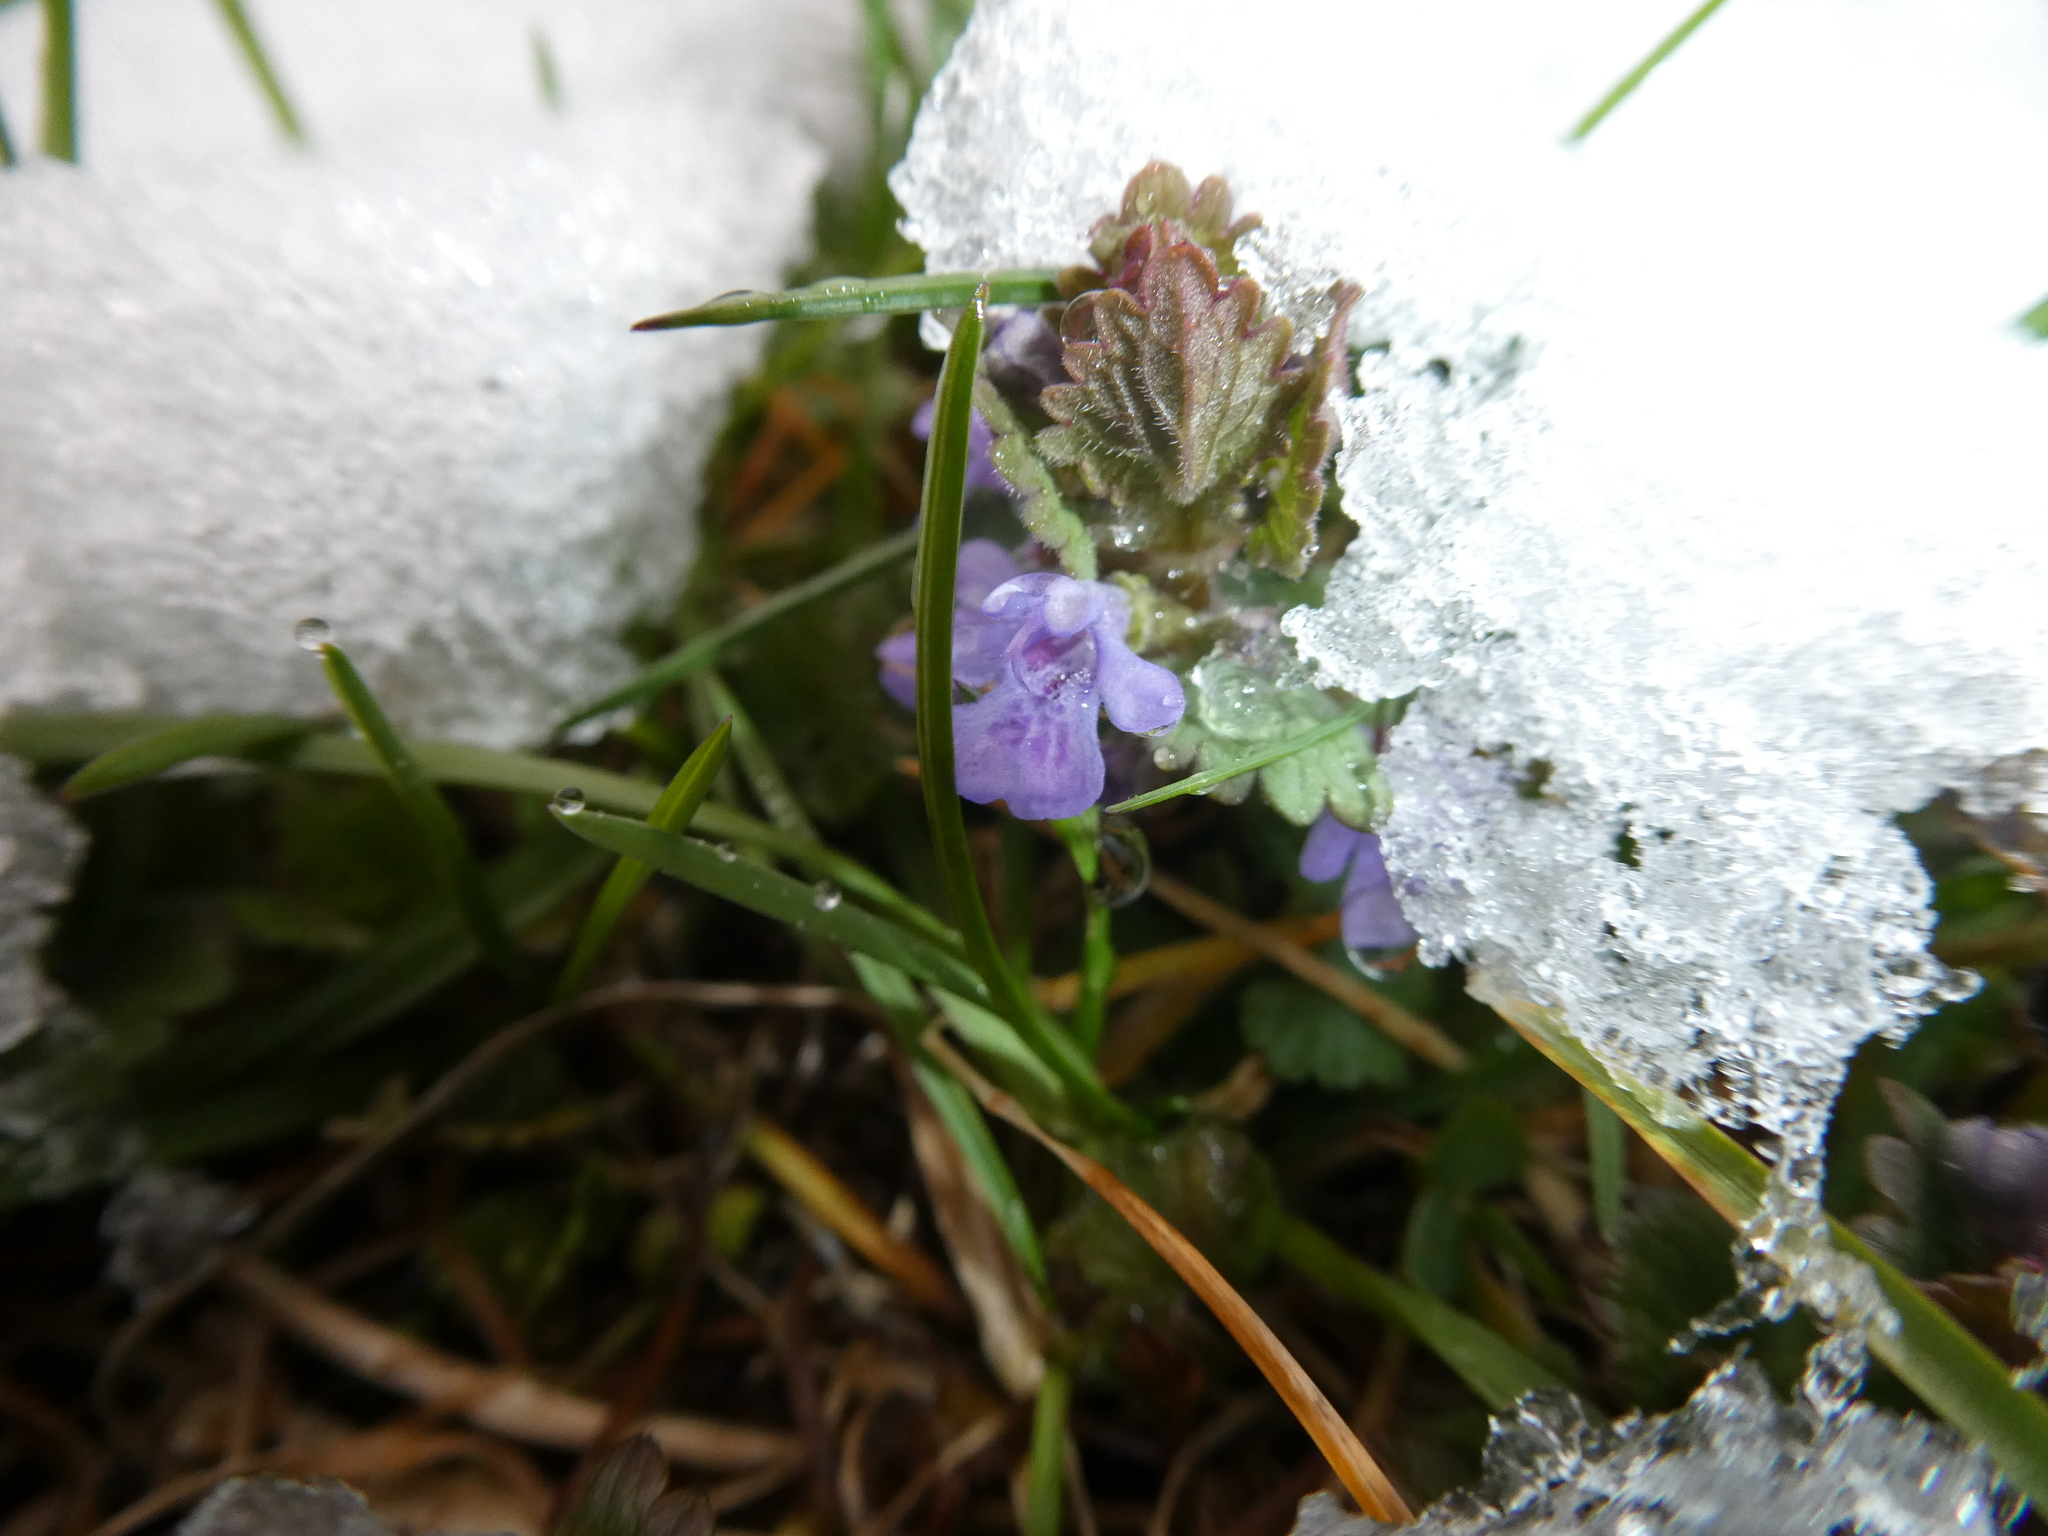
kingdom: Plantae
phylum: Tracheophyta
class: Magnoliopsida
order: Lamiales
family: Lamiaceae
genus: Glechoma
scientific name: Glechoma hederacea
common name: Ground ivy
